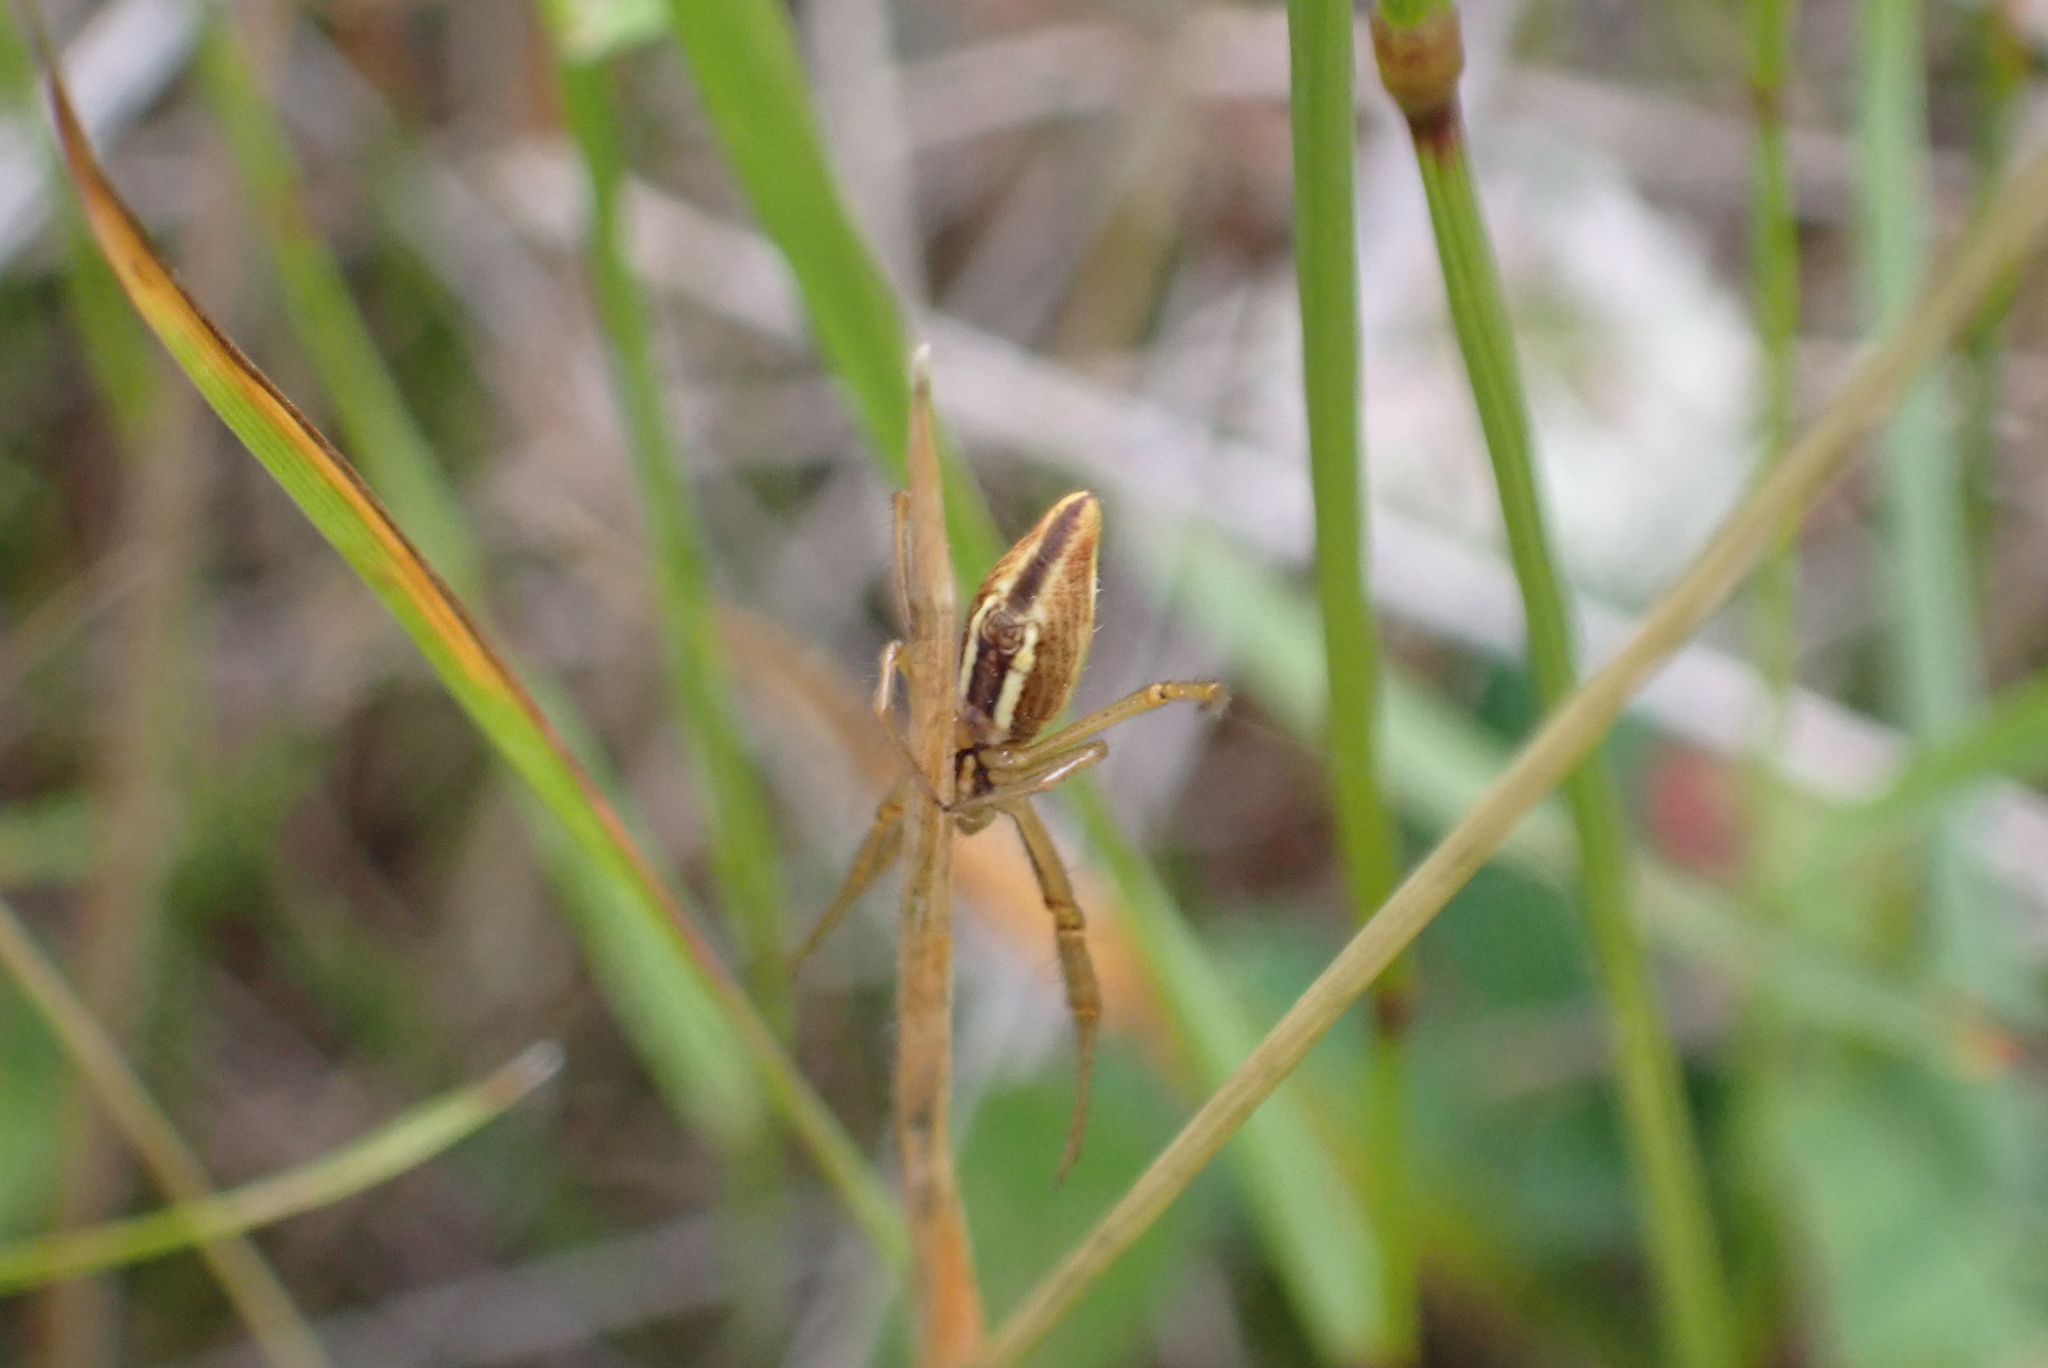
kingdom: Animalia
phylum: Arthropoda
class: Arachnida
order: Araneae
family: Araneidae
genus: Argiope
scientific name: Argiope protensa
